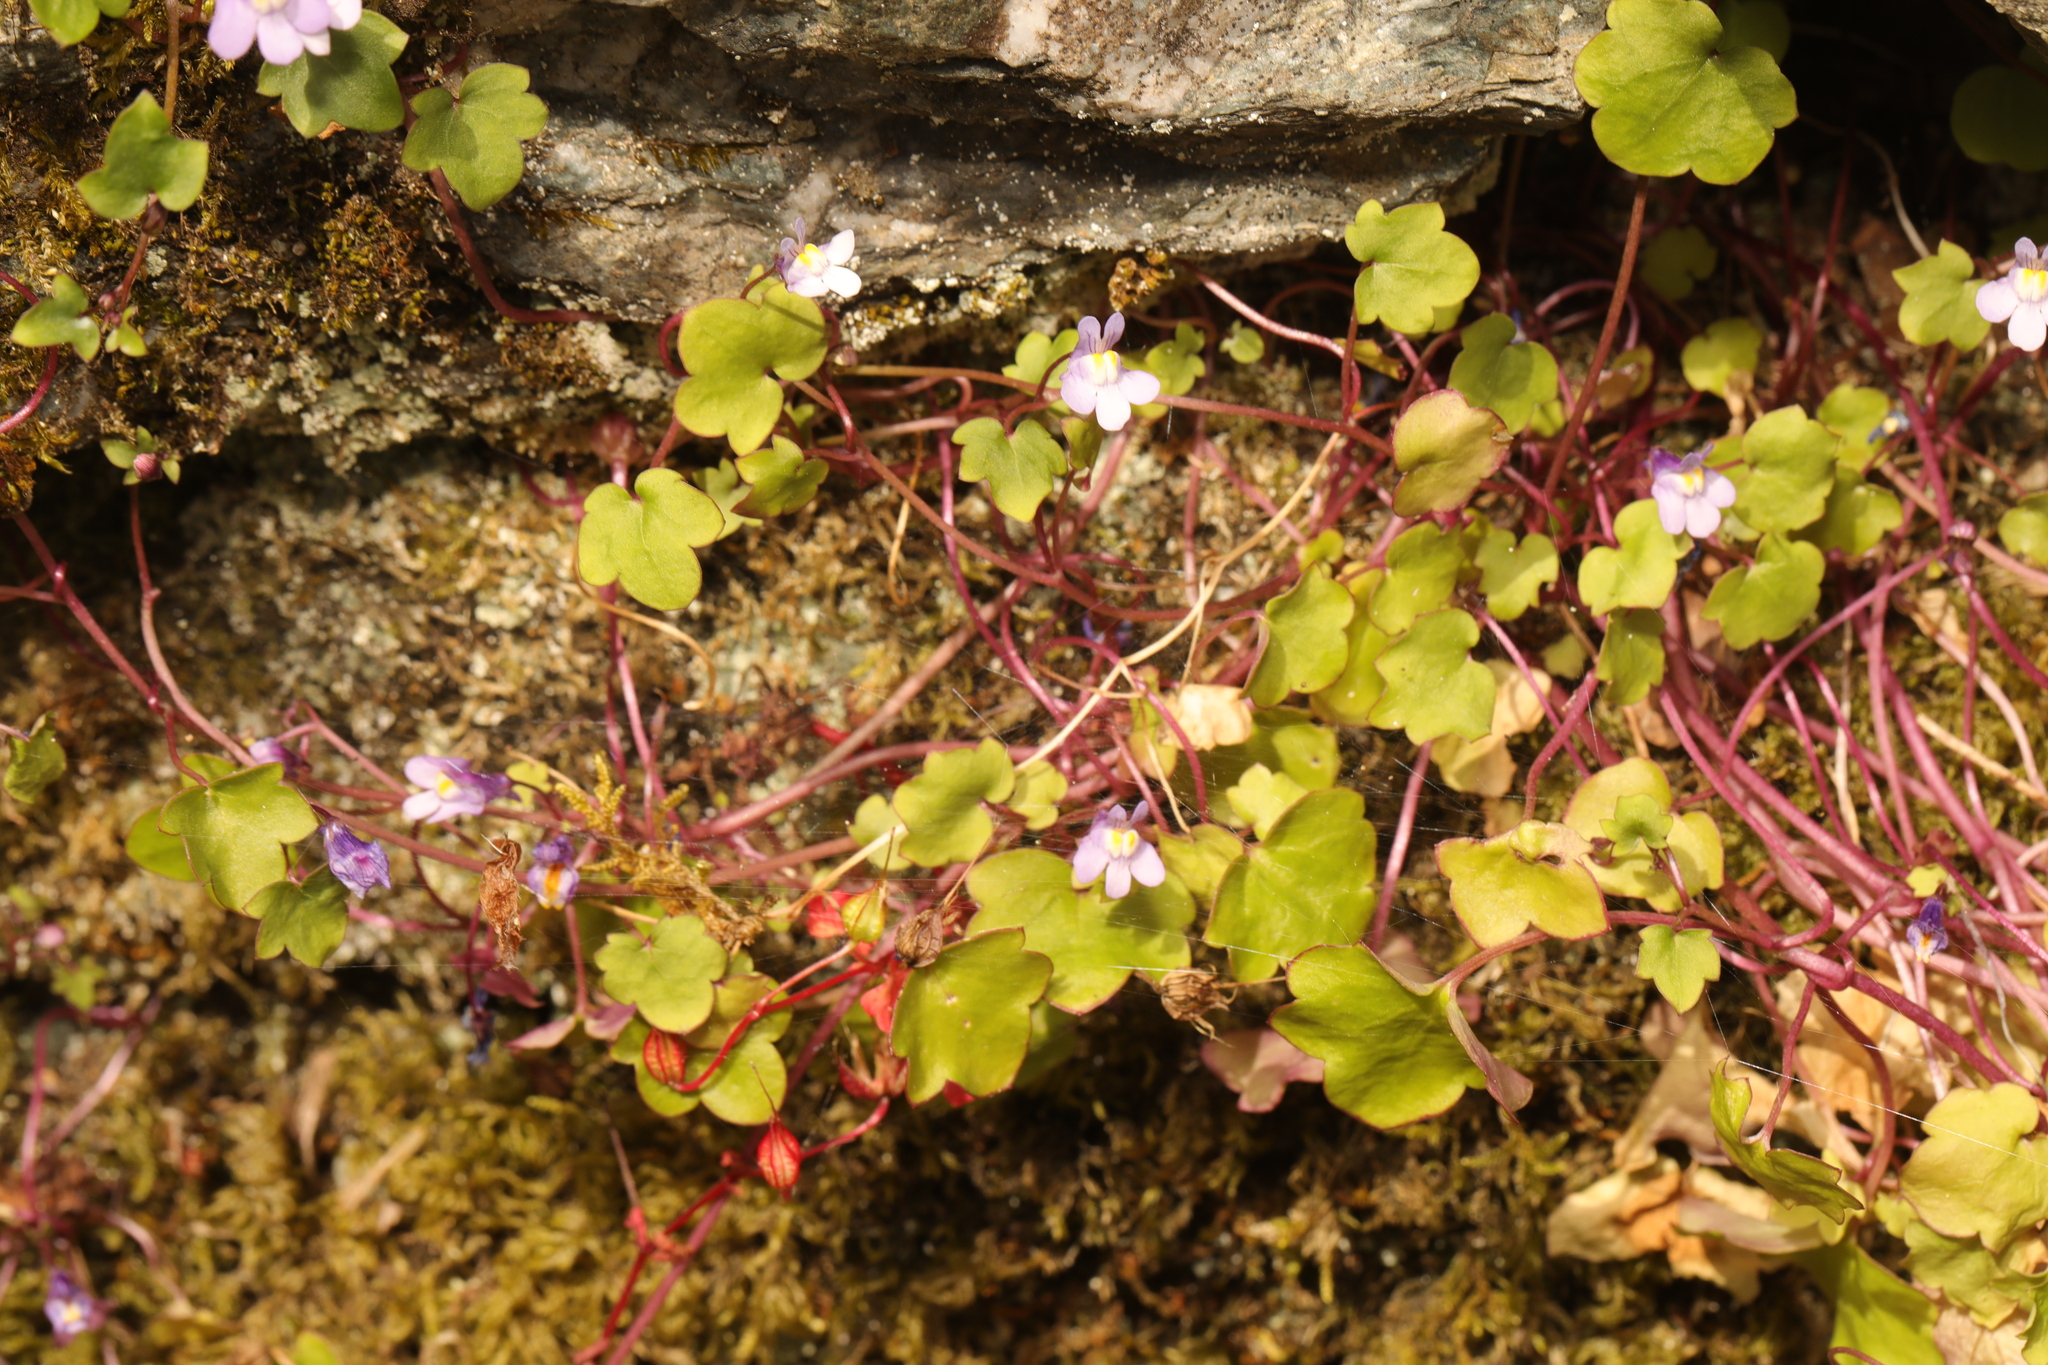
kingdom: Plantae
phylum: Tracheophyta
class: Magnoliopsida
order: Lamiales
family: Plantaginaceae
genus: Cymbalaria
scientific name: Cymbalaria muralis
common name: Ivy-leaved toadflax
